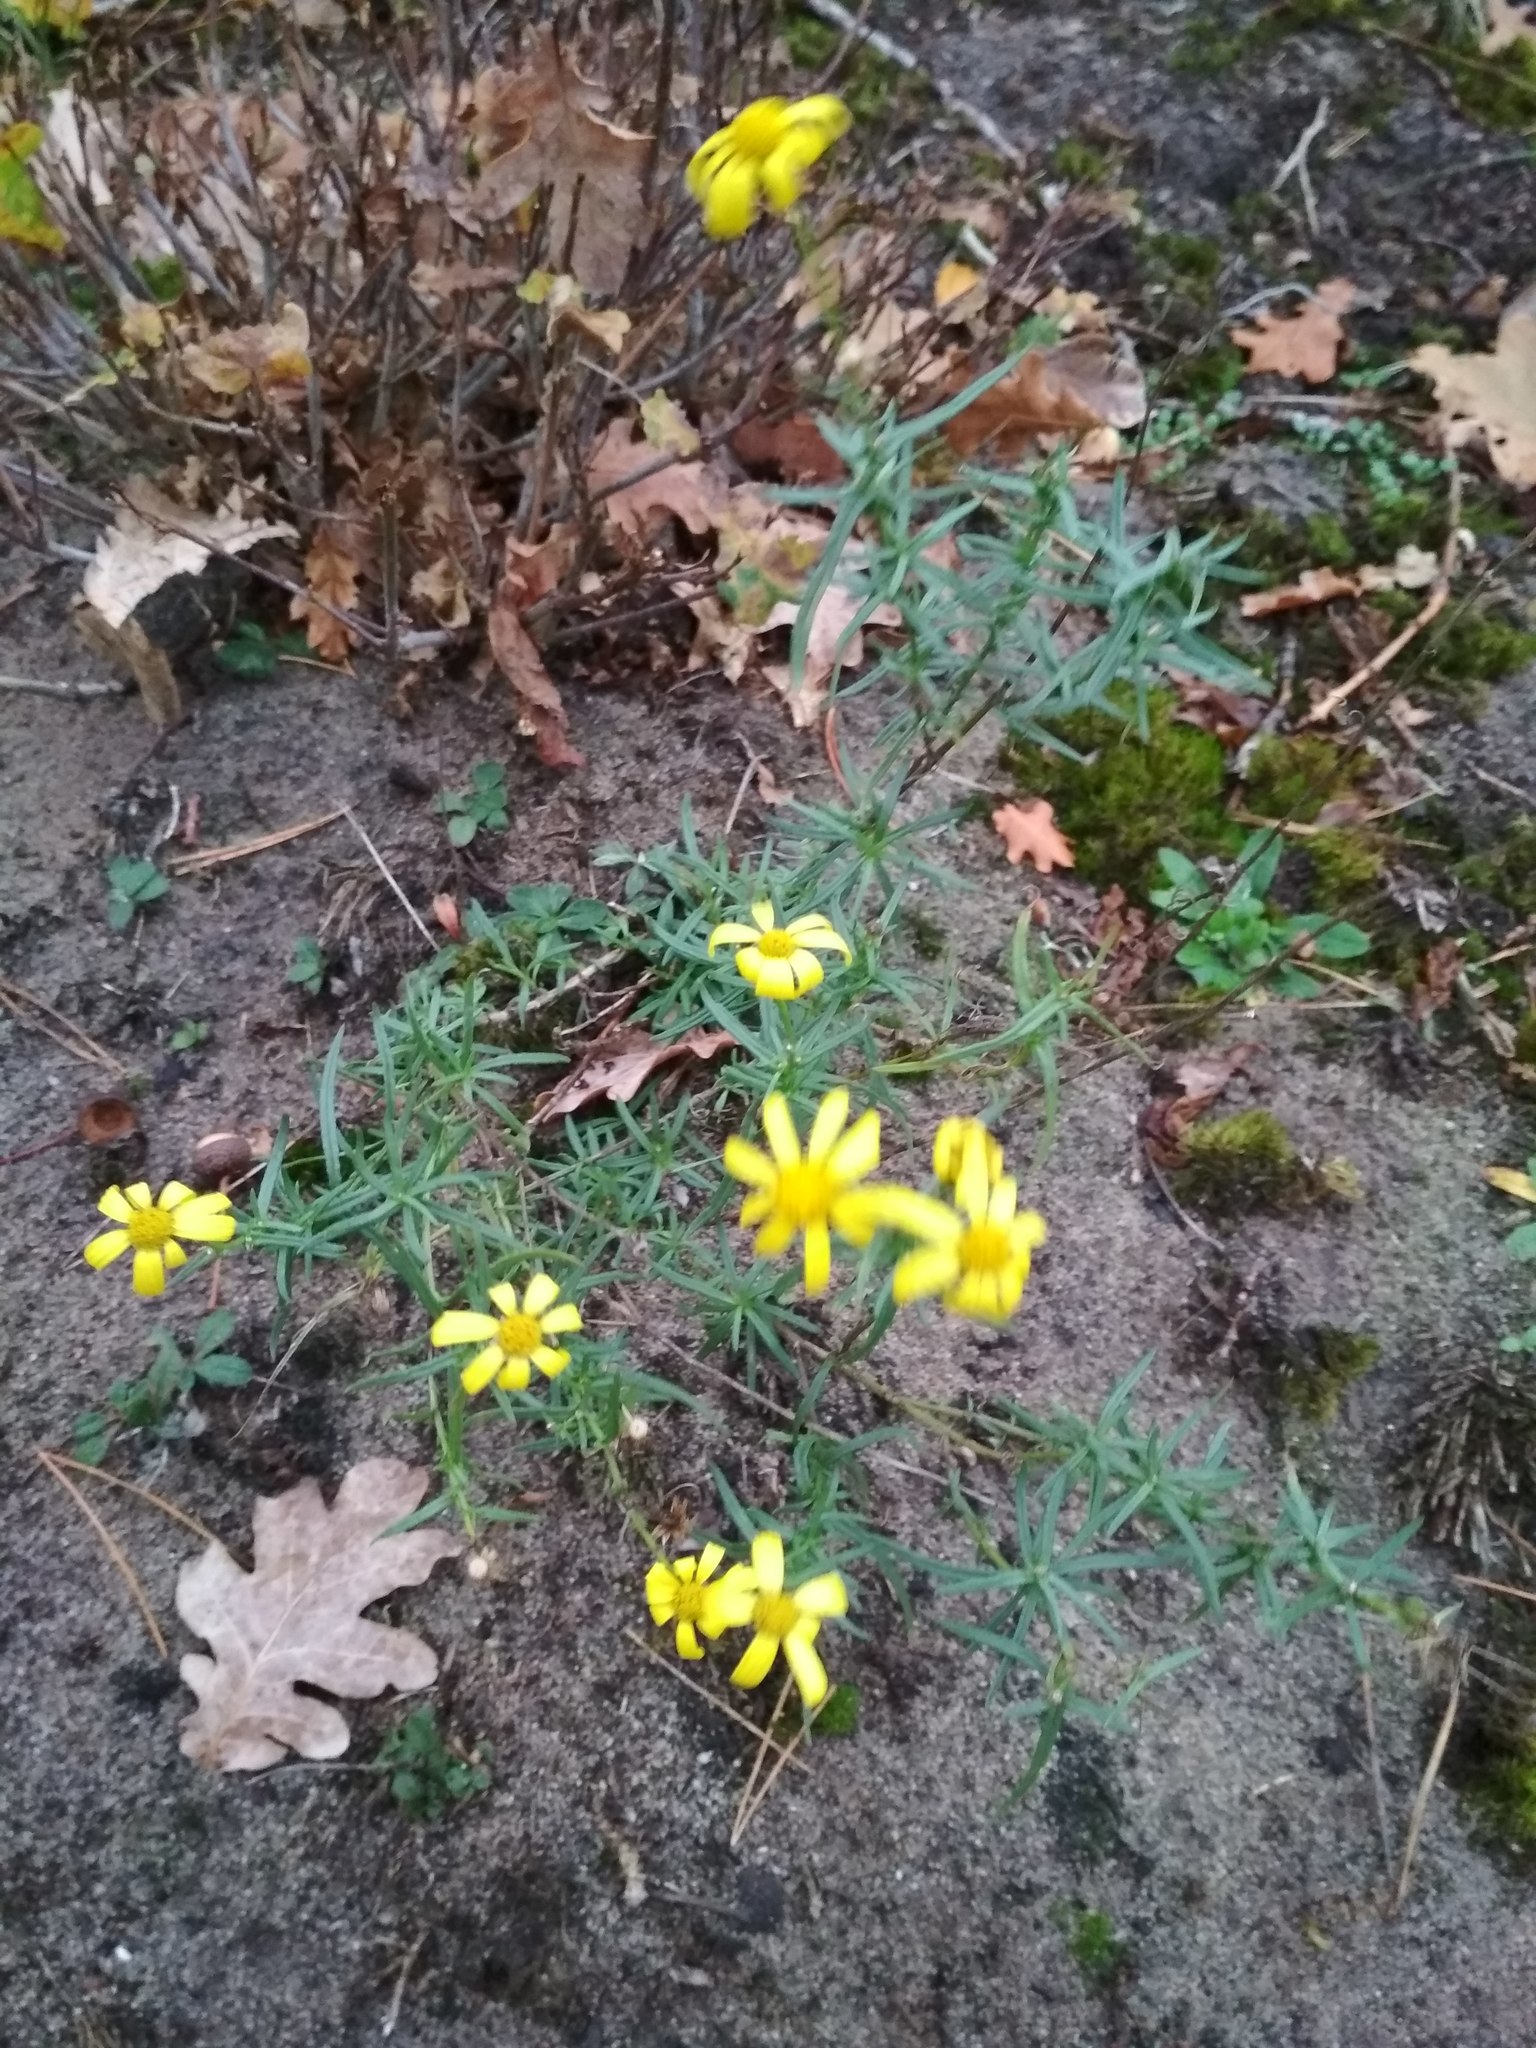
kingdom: Plantae
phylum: Tracheophyta
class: Magnoliopsida
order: Asterales
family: Asteraceae
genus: Senecio
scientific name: Senecio inaequidens
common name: Narrow-leaved ragwort
